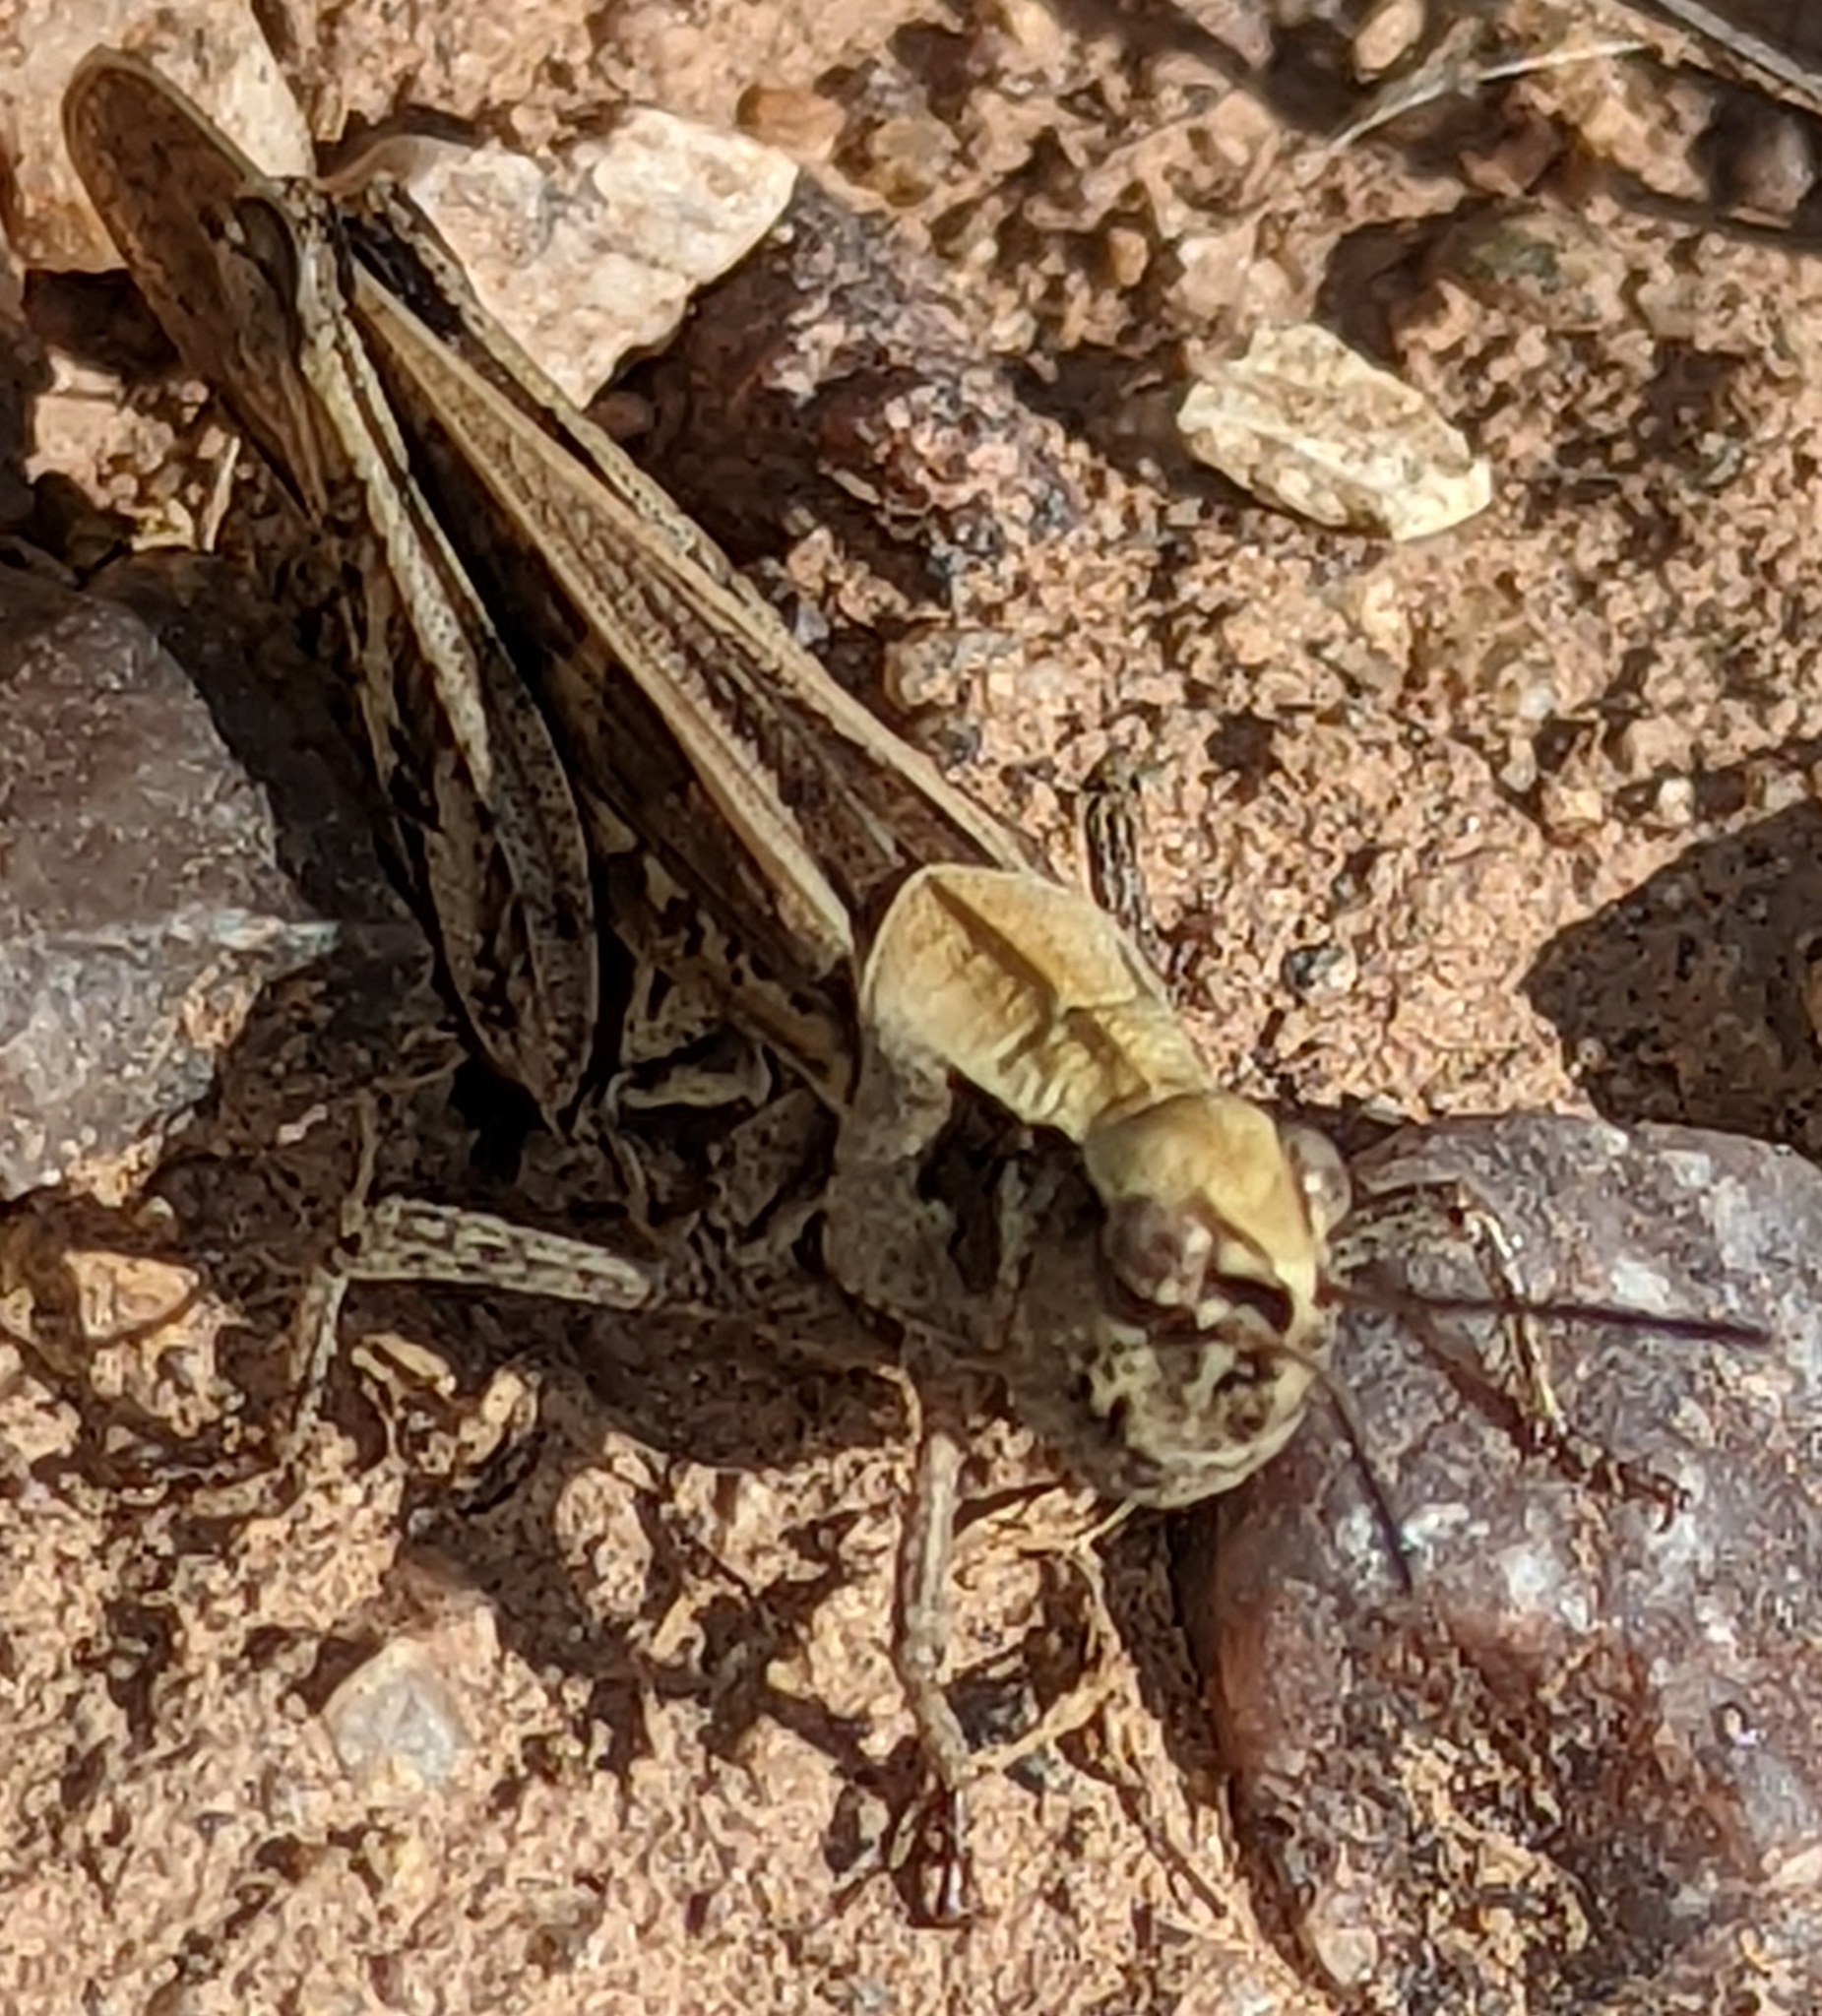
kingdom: Animalia
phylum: Arthropoda
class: Insecta
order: Orthoptera
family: Acrididae
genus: Camnula
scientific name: Camnula pellucida
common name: Clear-winged grasshopper
